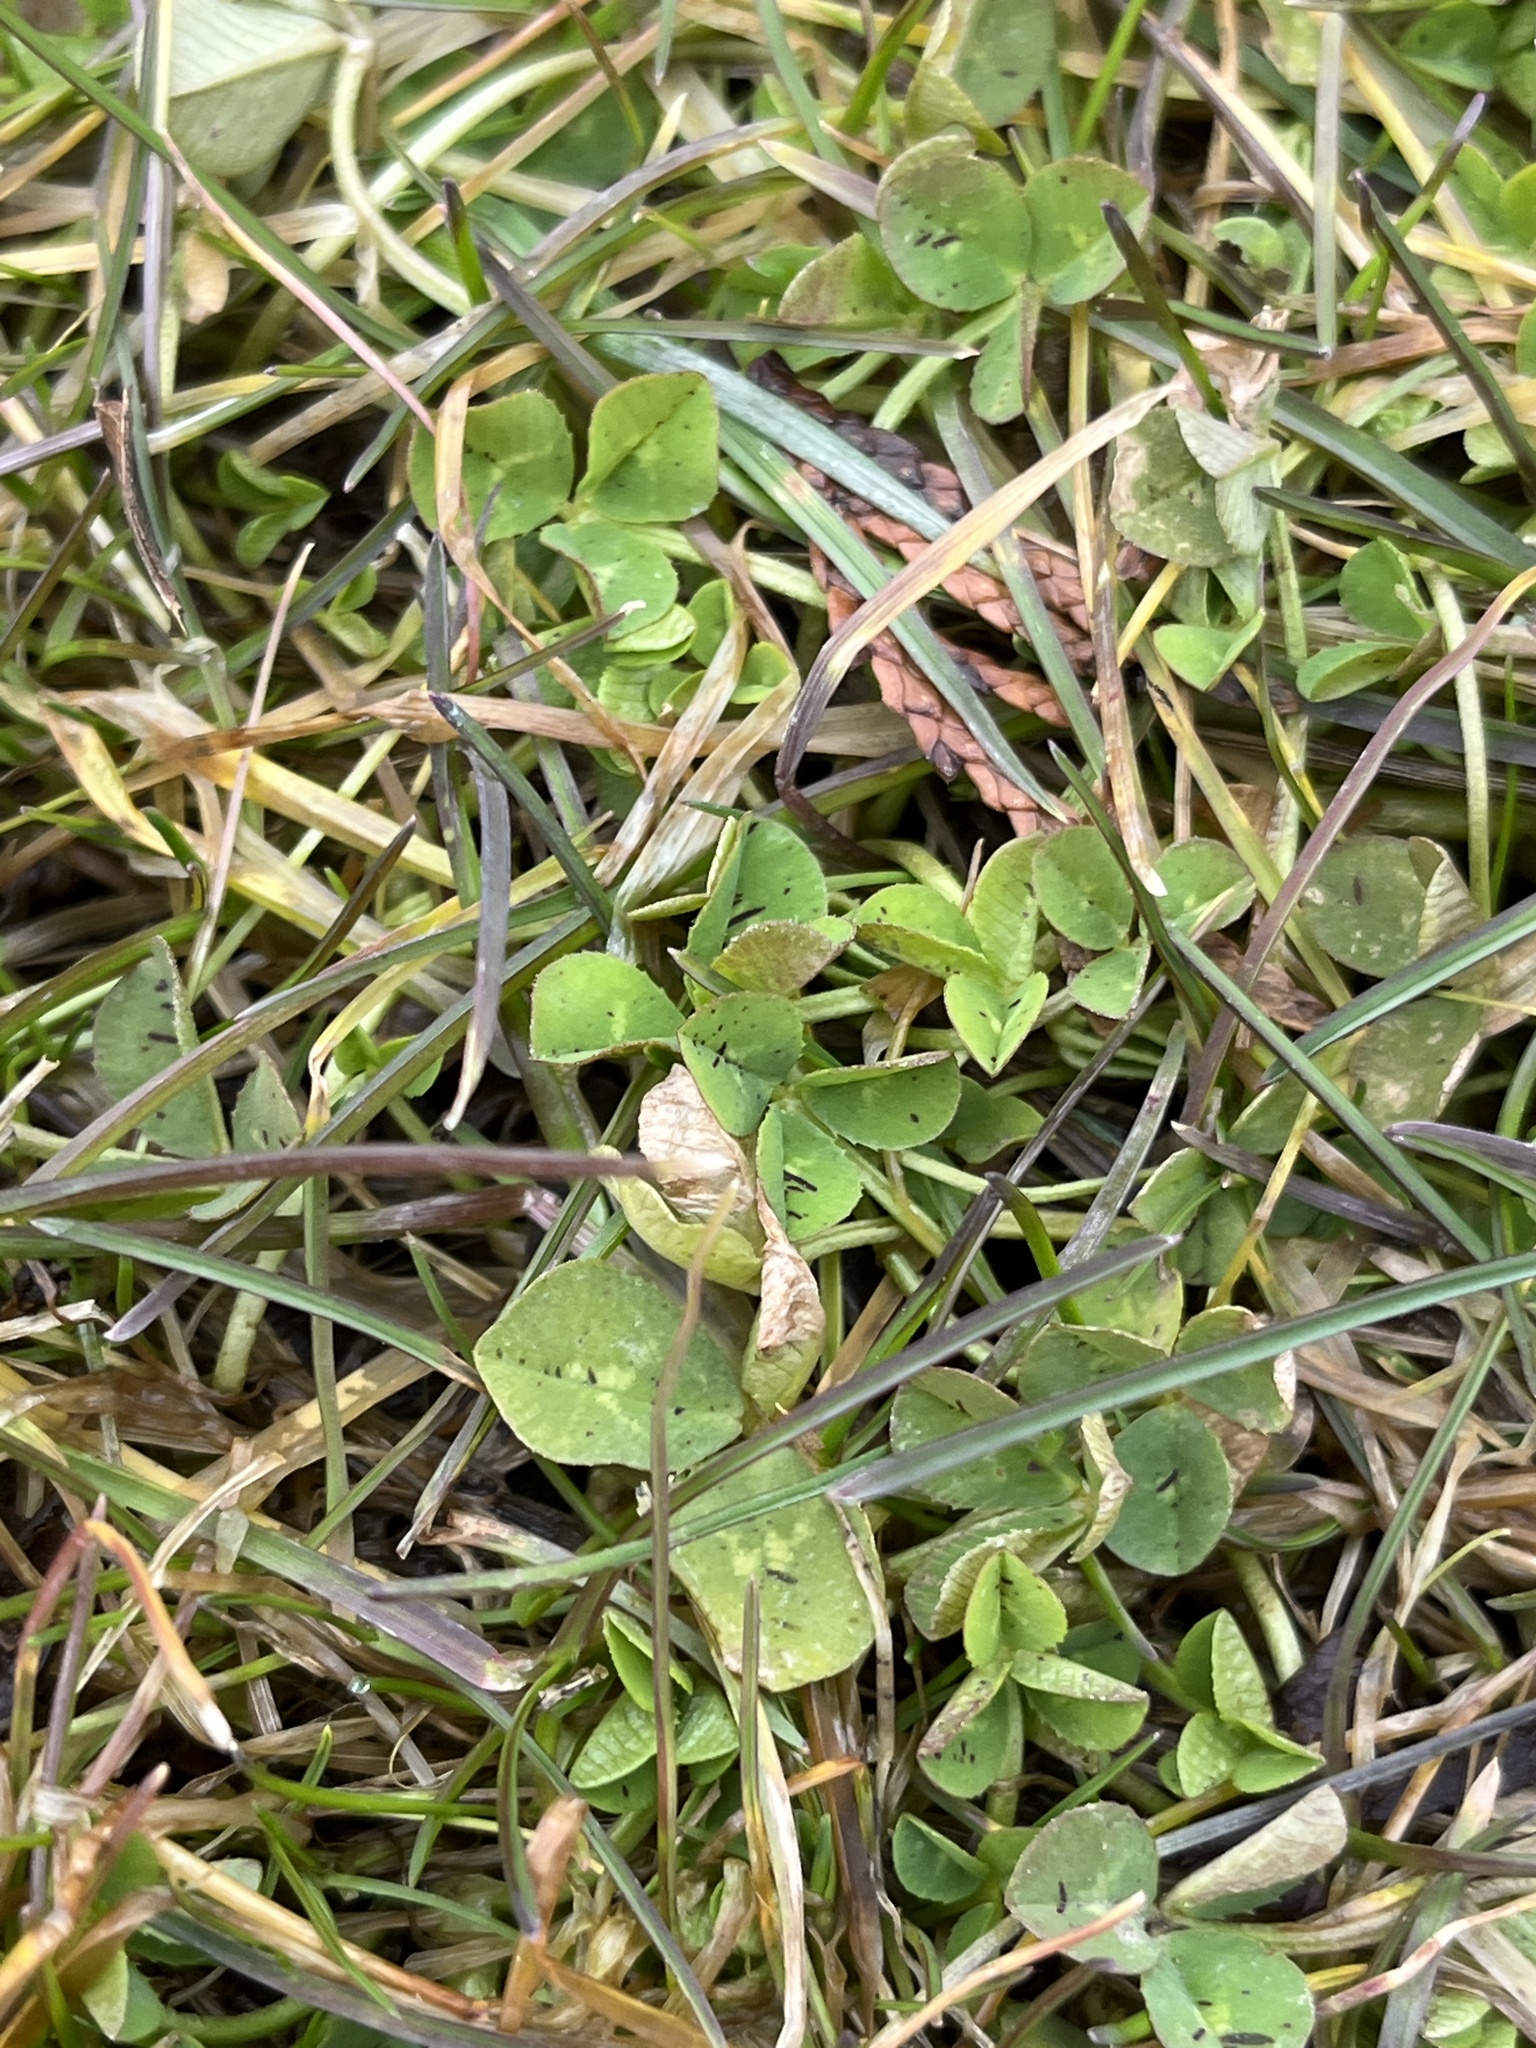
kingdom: Plantae
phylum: Tracheophyta
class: Magnoliopsida
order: Fabales
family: Fabaceae
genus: Trifolium
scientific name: Trifolium repens
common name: White clover
